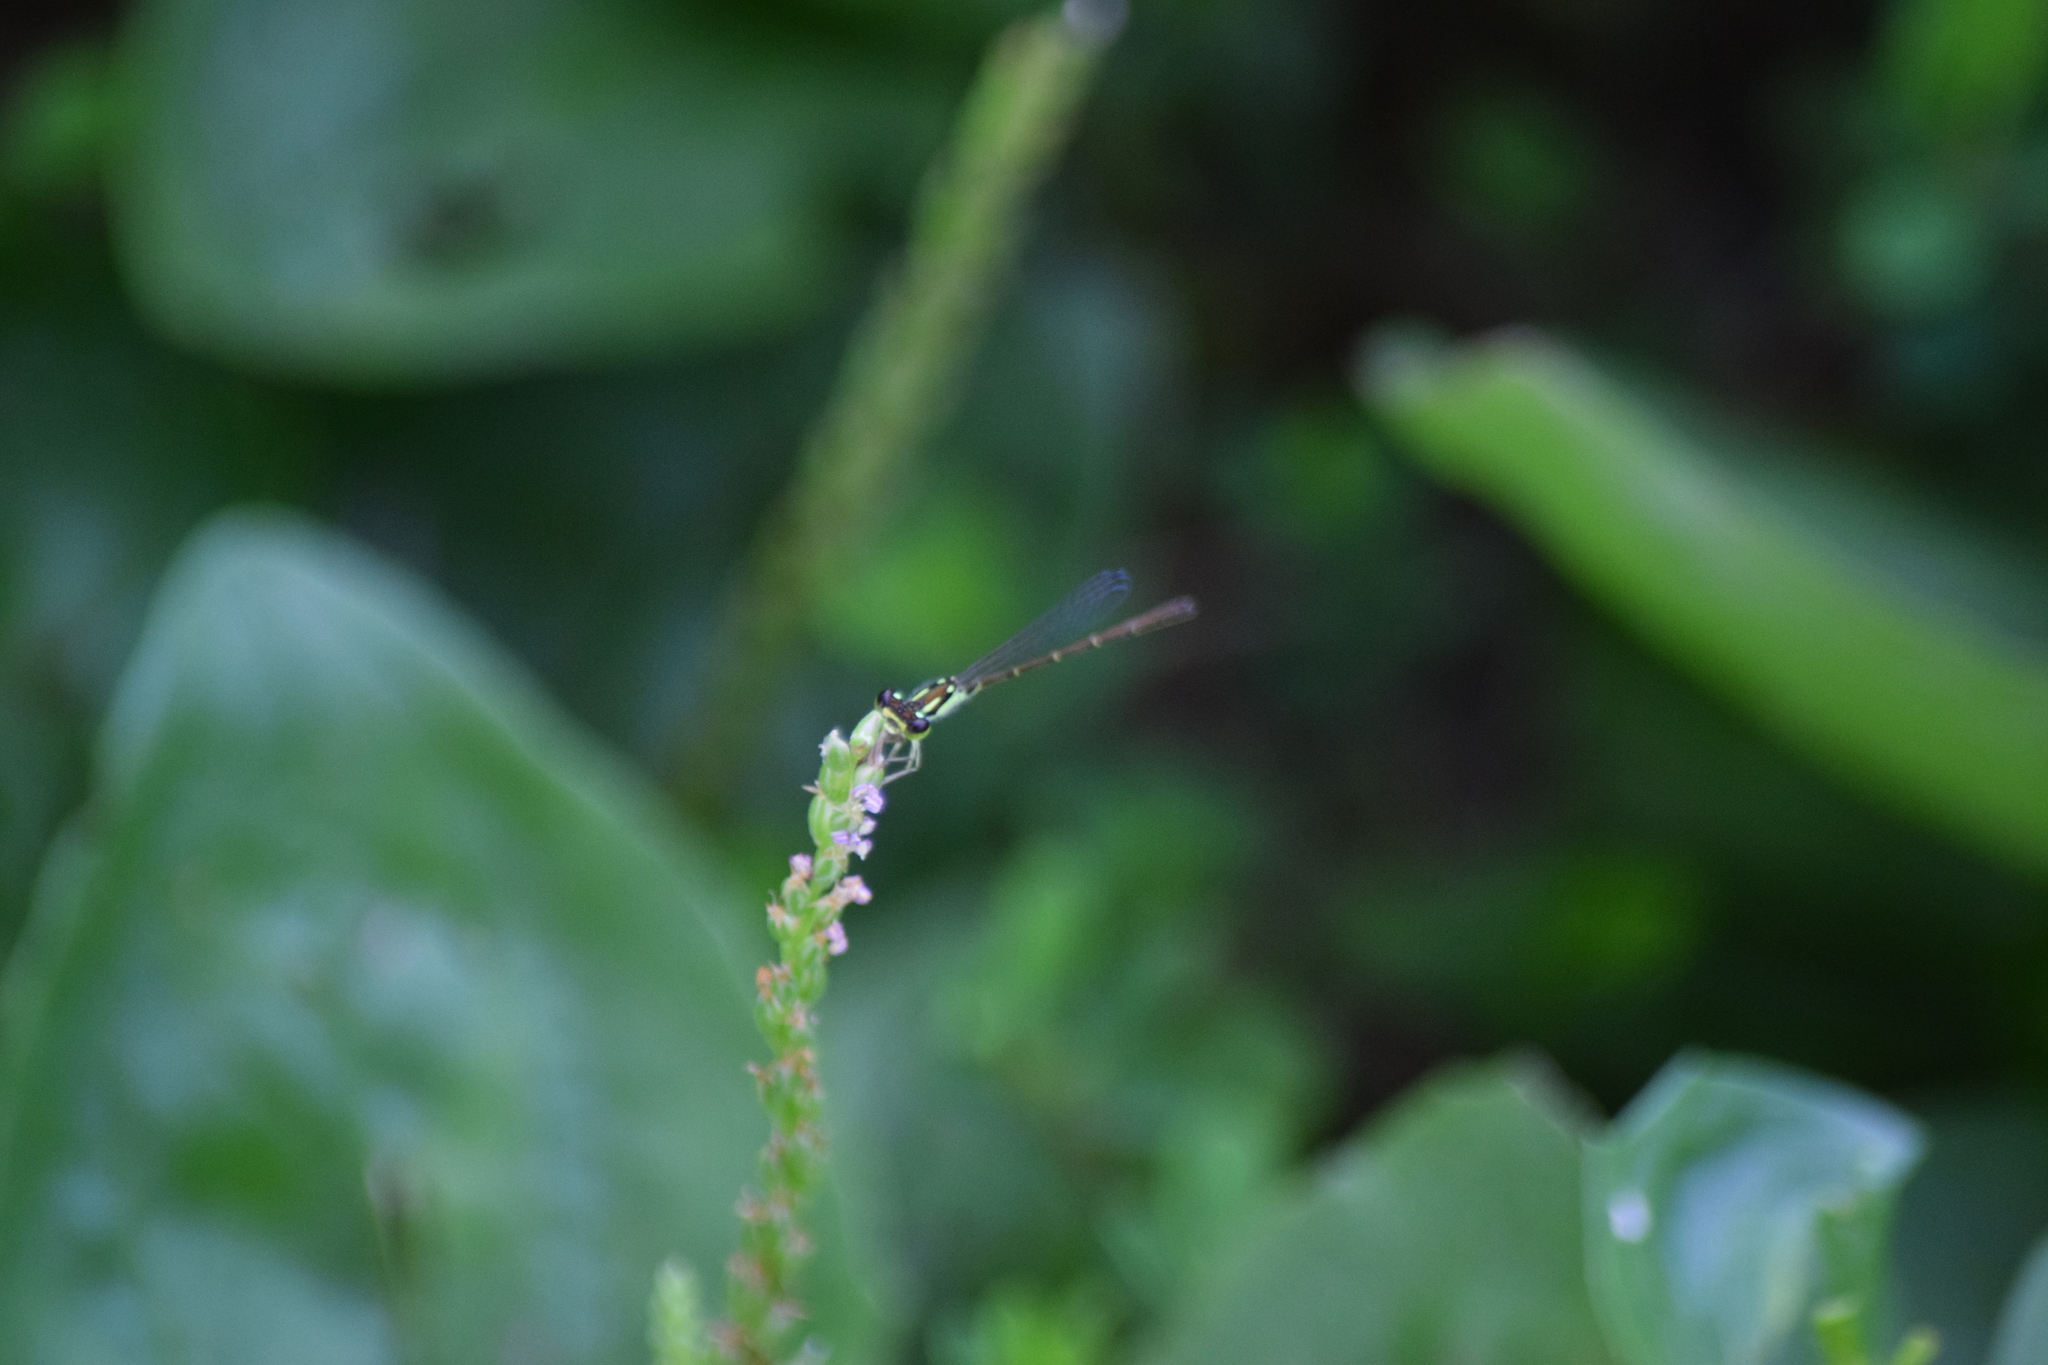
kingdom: Animalia
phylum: Arthropoda
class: Insecta
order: Odonata
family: Coenagrionidae
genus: Ischnura
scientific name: Ischnura posita
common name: Fragile forktail
